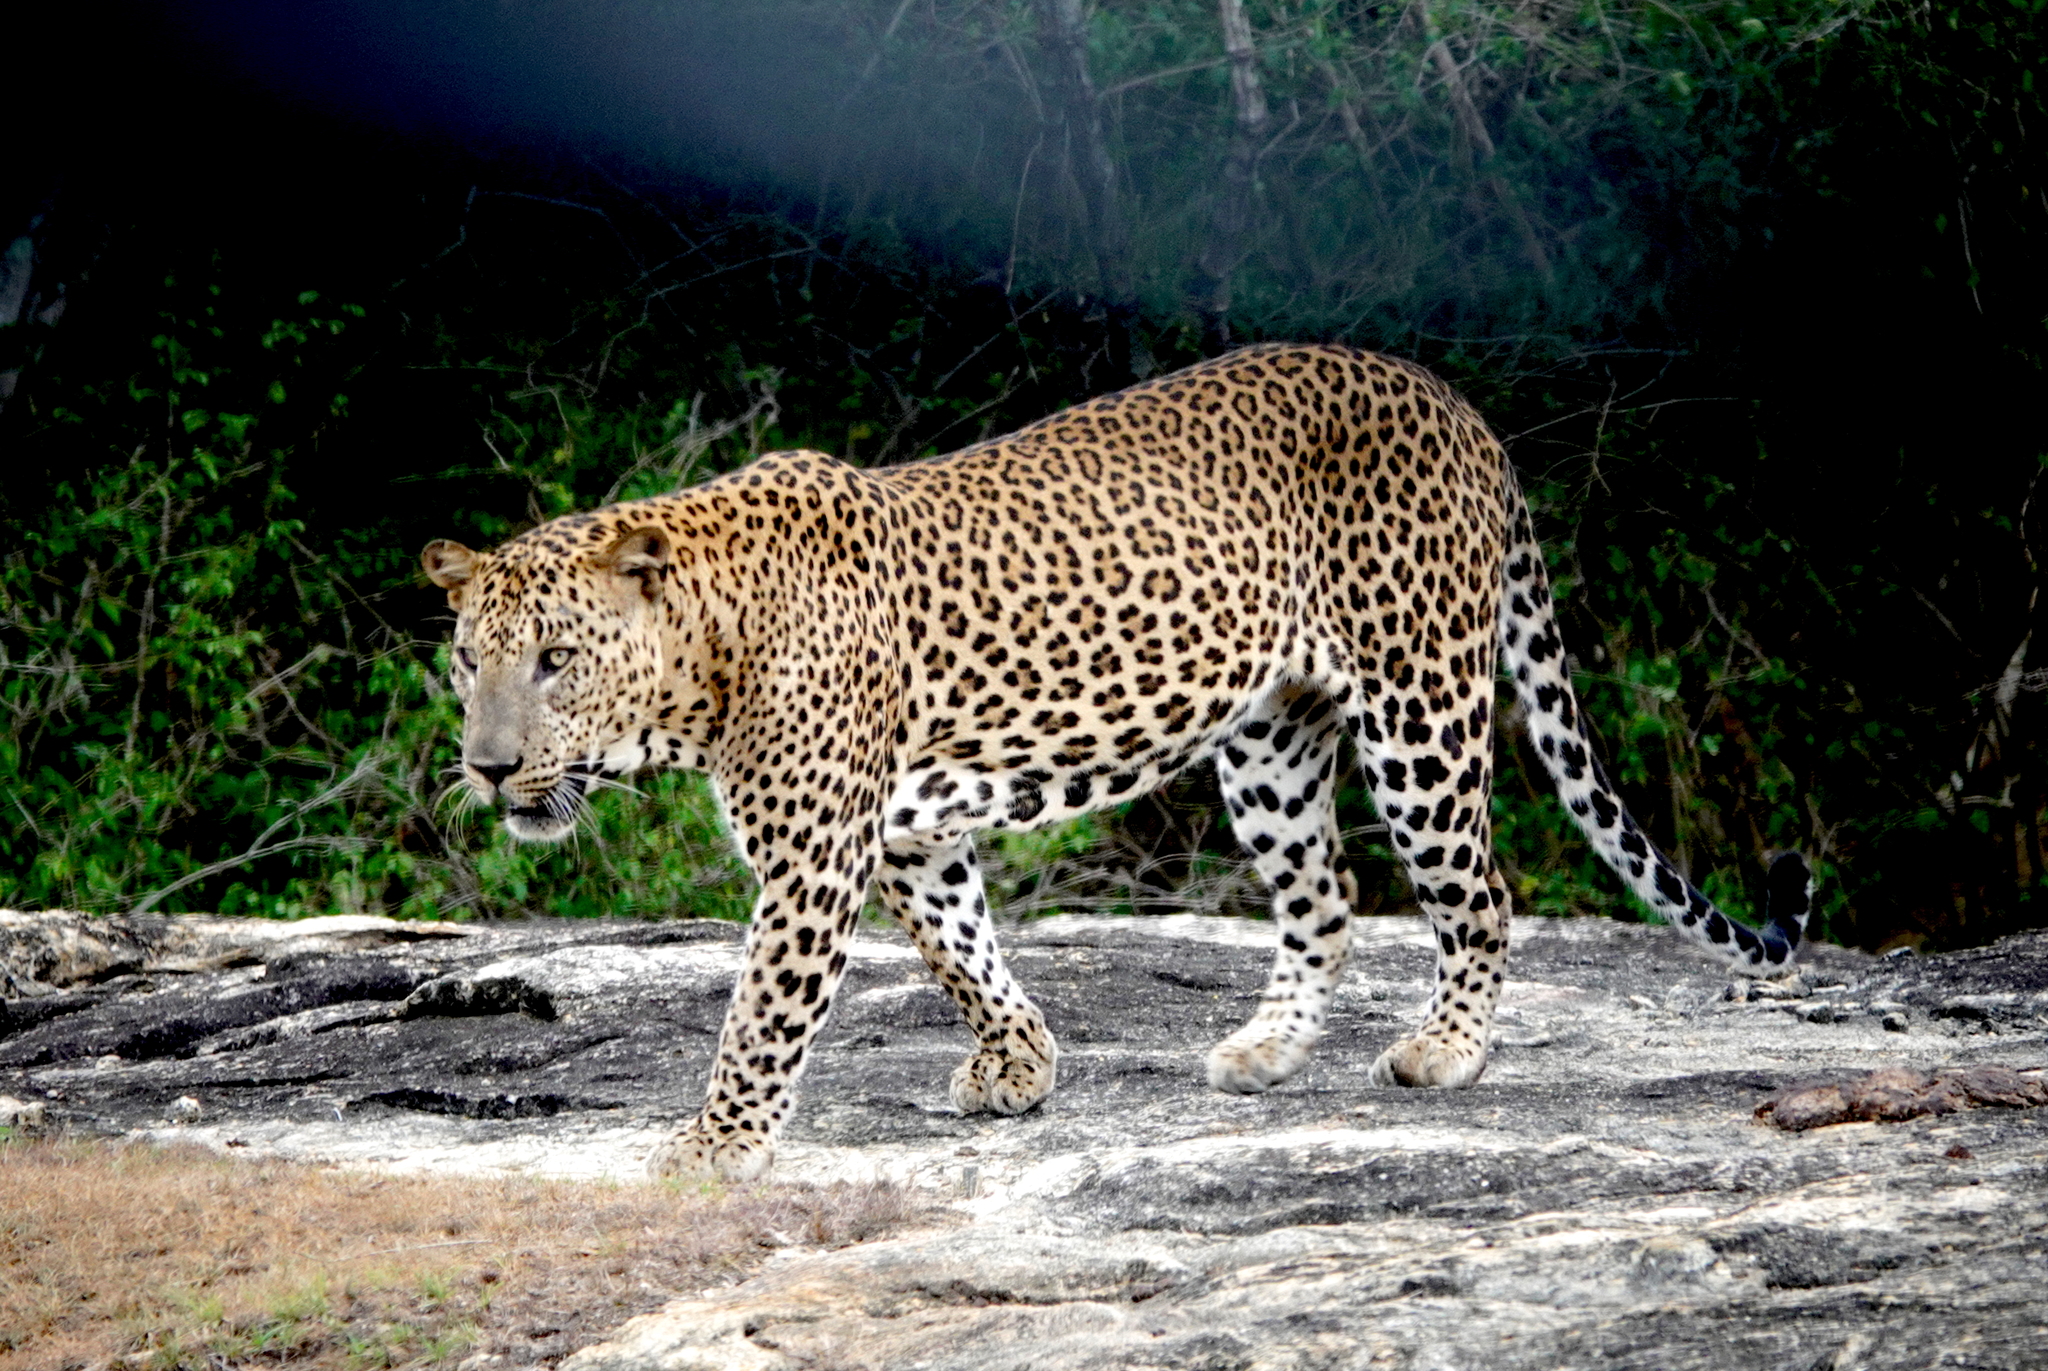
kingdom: Animalia
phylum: Chordata
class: Mammalia
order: Carnivora
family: Felidae
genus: Panthera
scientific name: Panthera pardus
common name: Leopard
